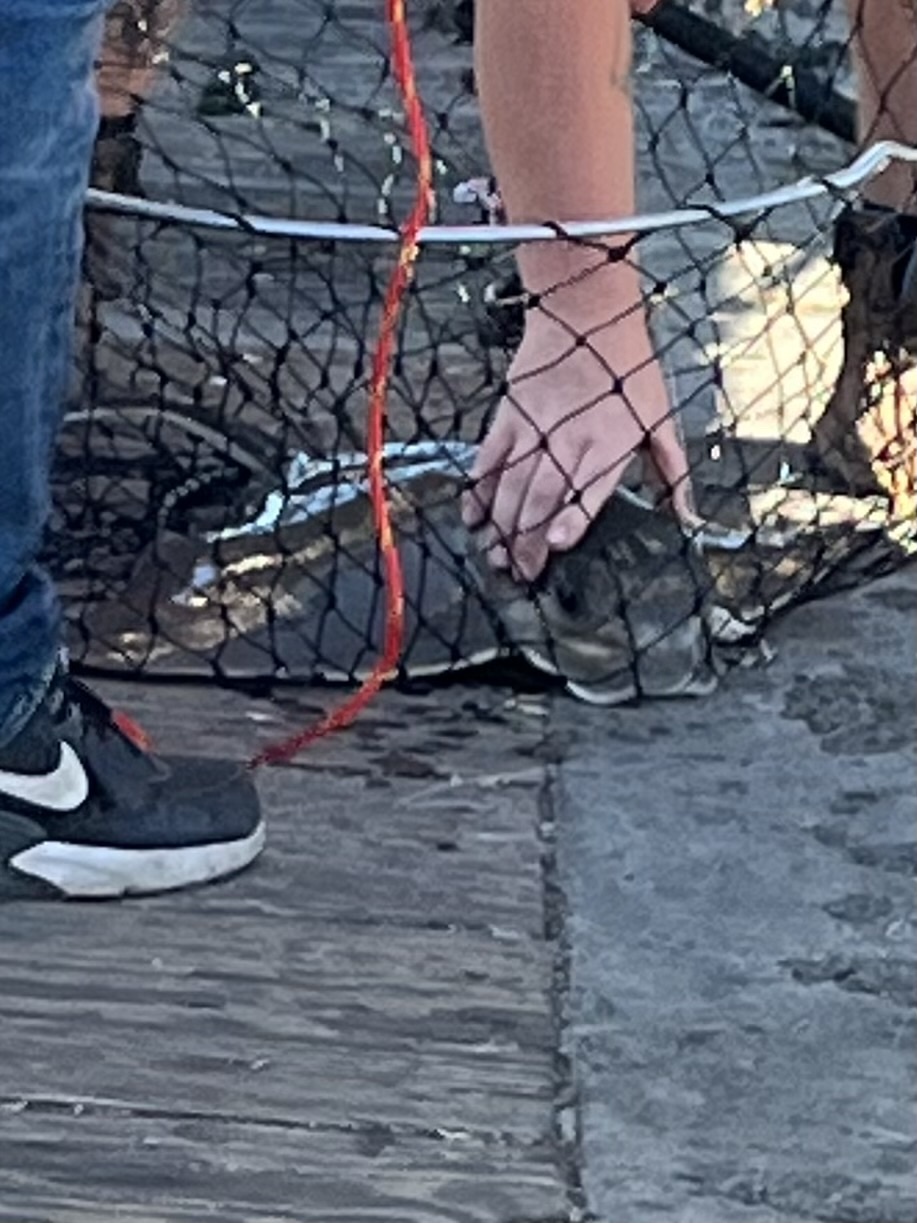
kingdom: Animalia
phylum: Chordata
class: Elasmobranchii
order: Myliobatiformes
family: Myliobatidae
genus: Myliobatis
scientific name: Myliobatis californica
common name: Bat ray
